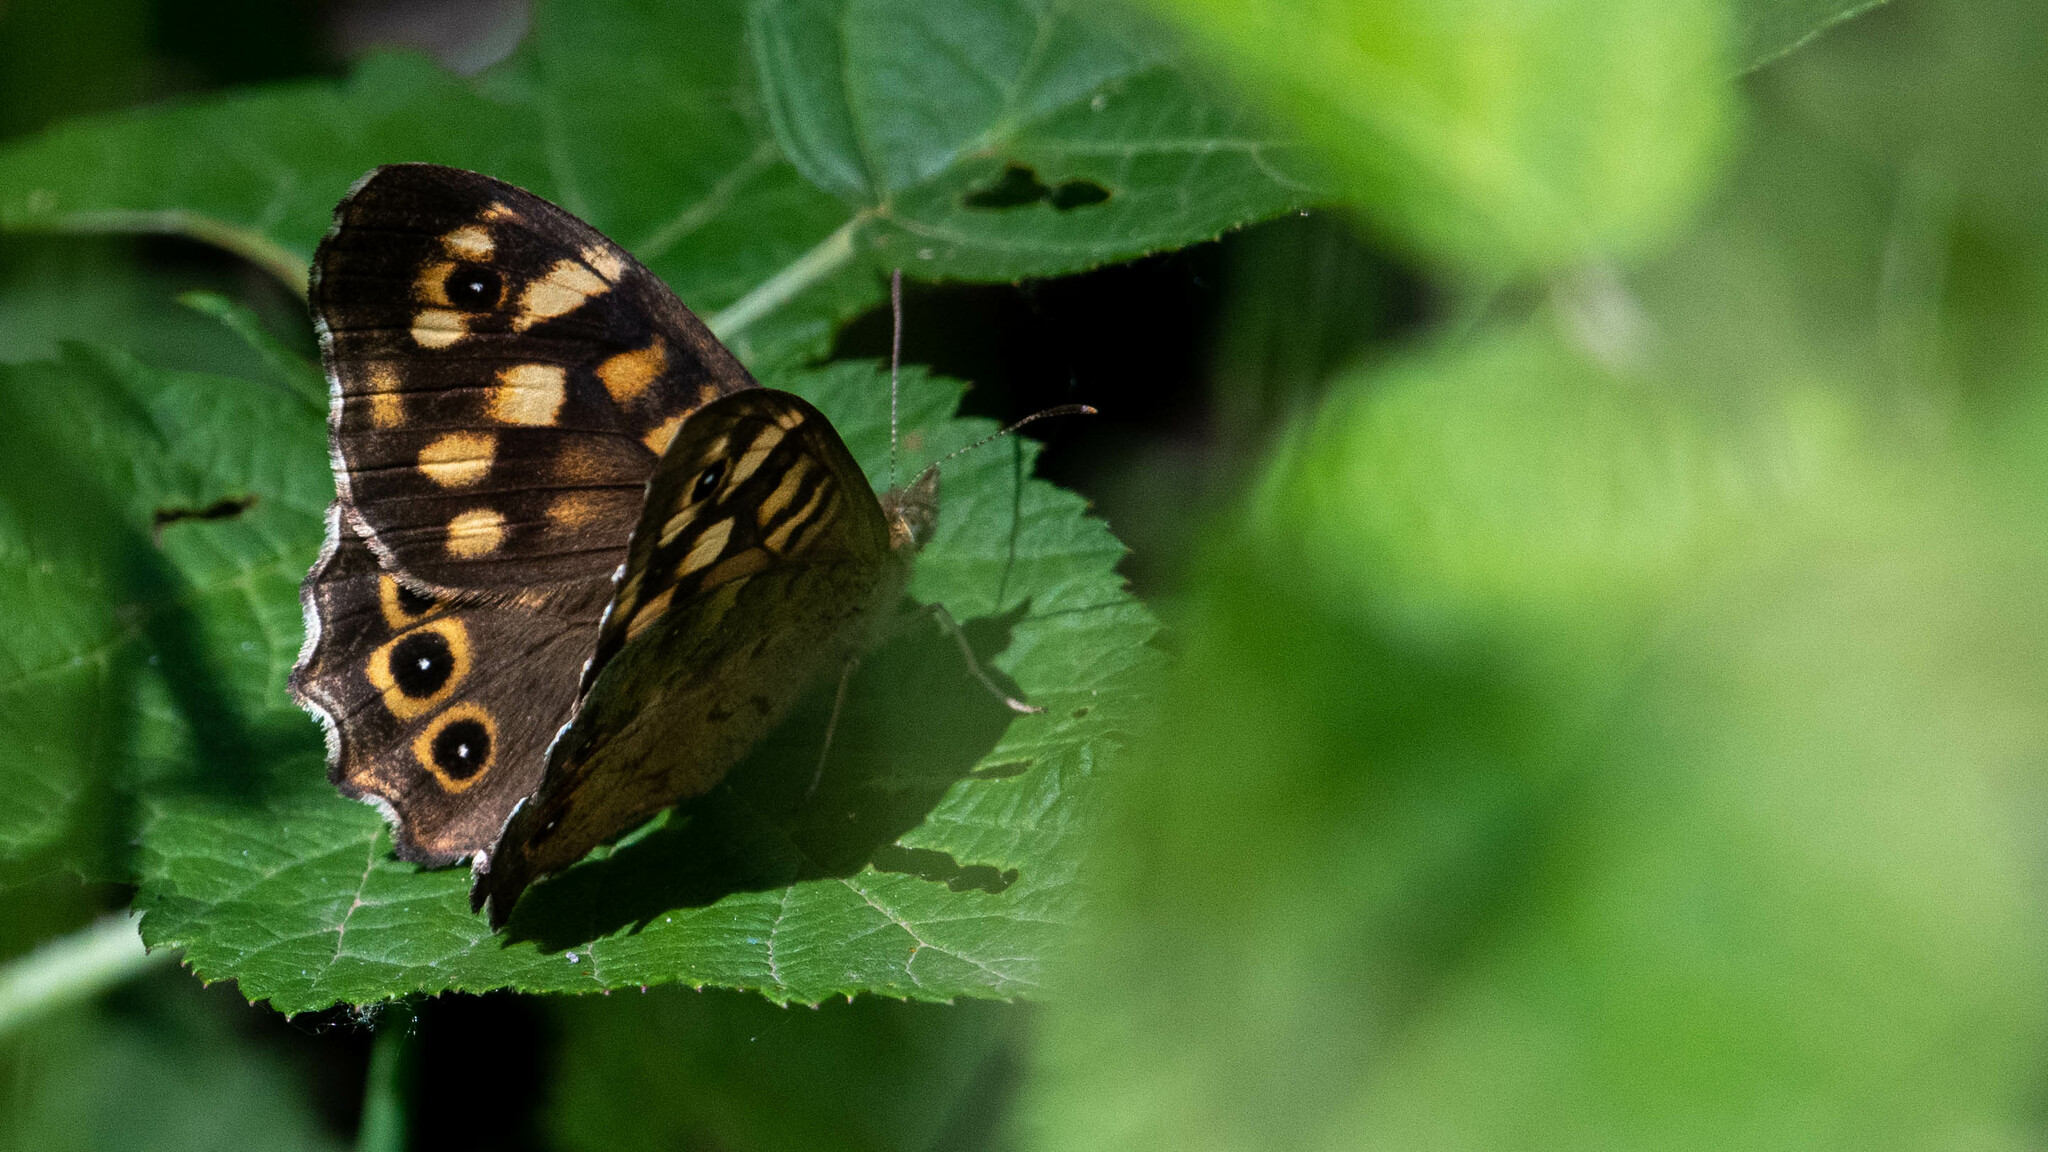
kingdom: Animalia
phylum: Arthropoda
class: Insecta
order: Lepidoptera
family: Nymphalidae
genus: Pararge
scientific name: Pararge aegeria
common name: Speckled wood
